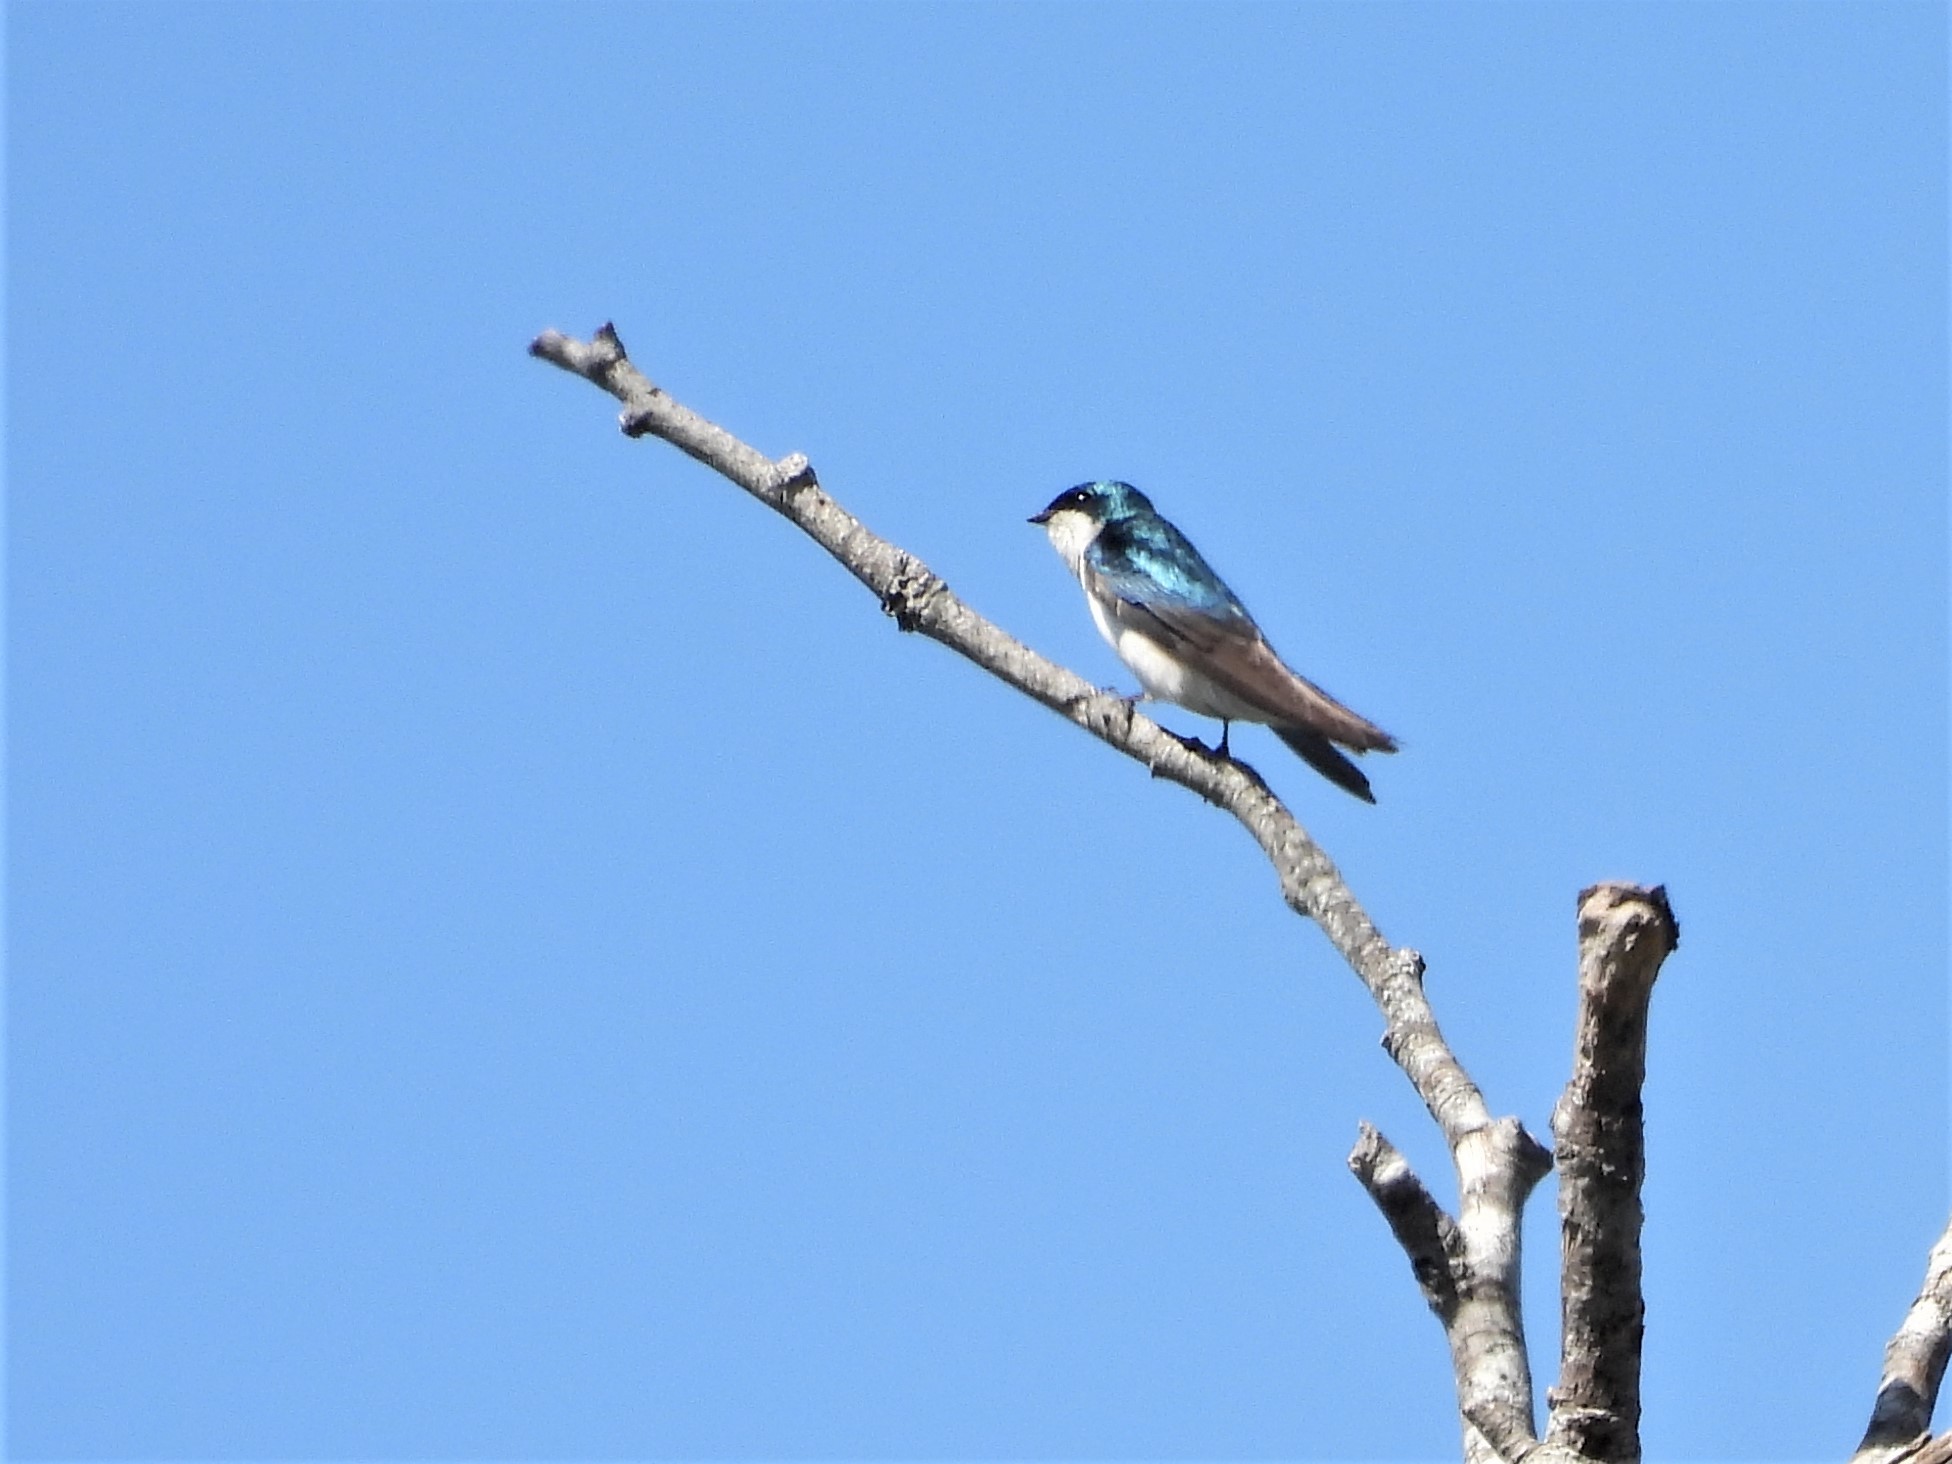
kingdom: Animalia
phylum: Chordata
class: Aves
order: Passeriformes
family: Hirundinidae
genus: Tachycineta
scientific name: Tachycineta bicolor
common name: Tree swallow
